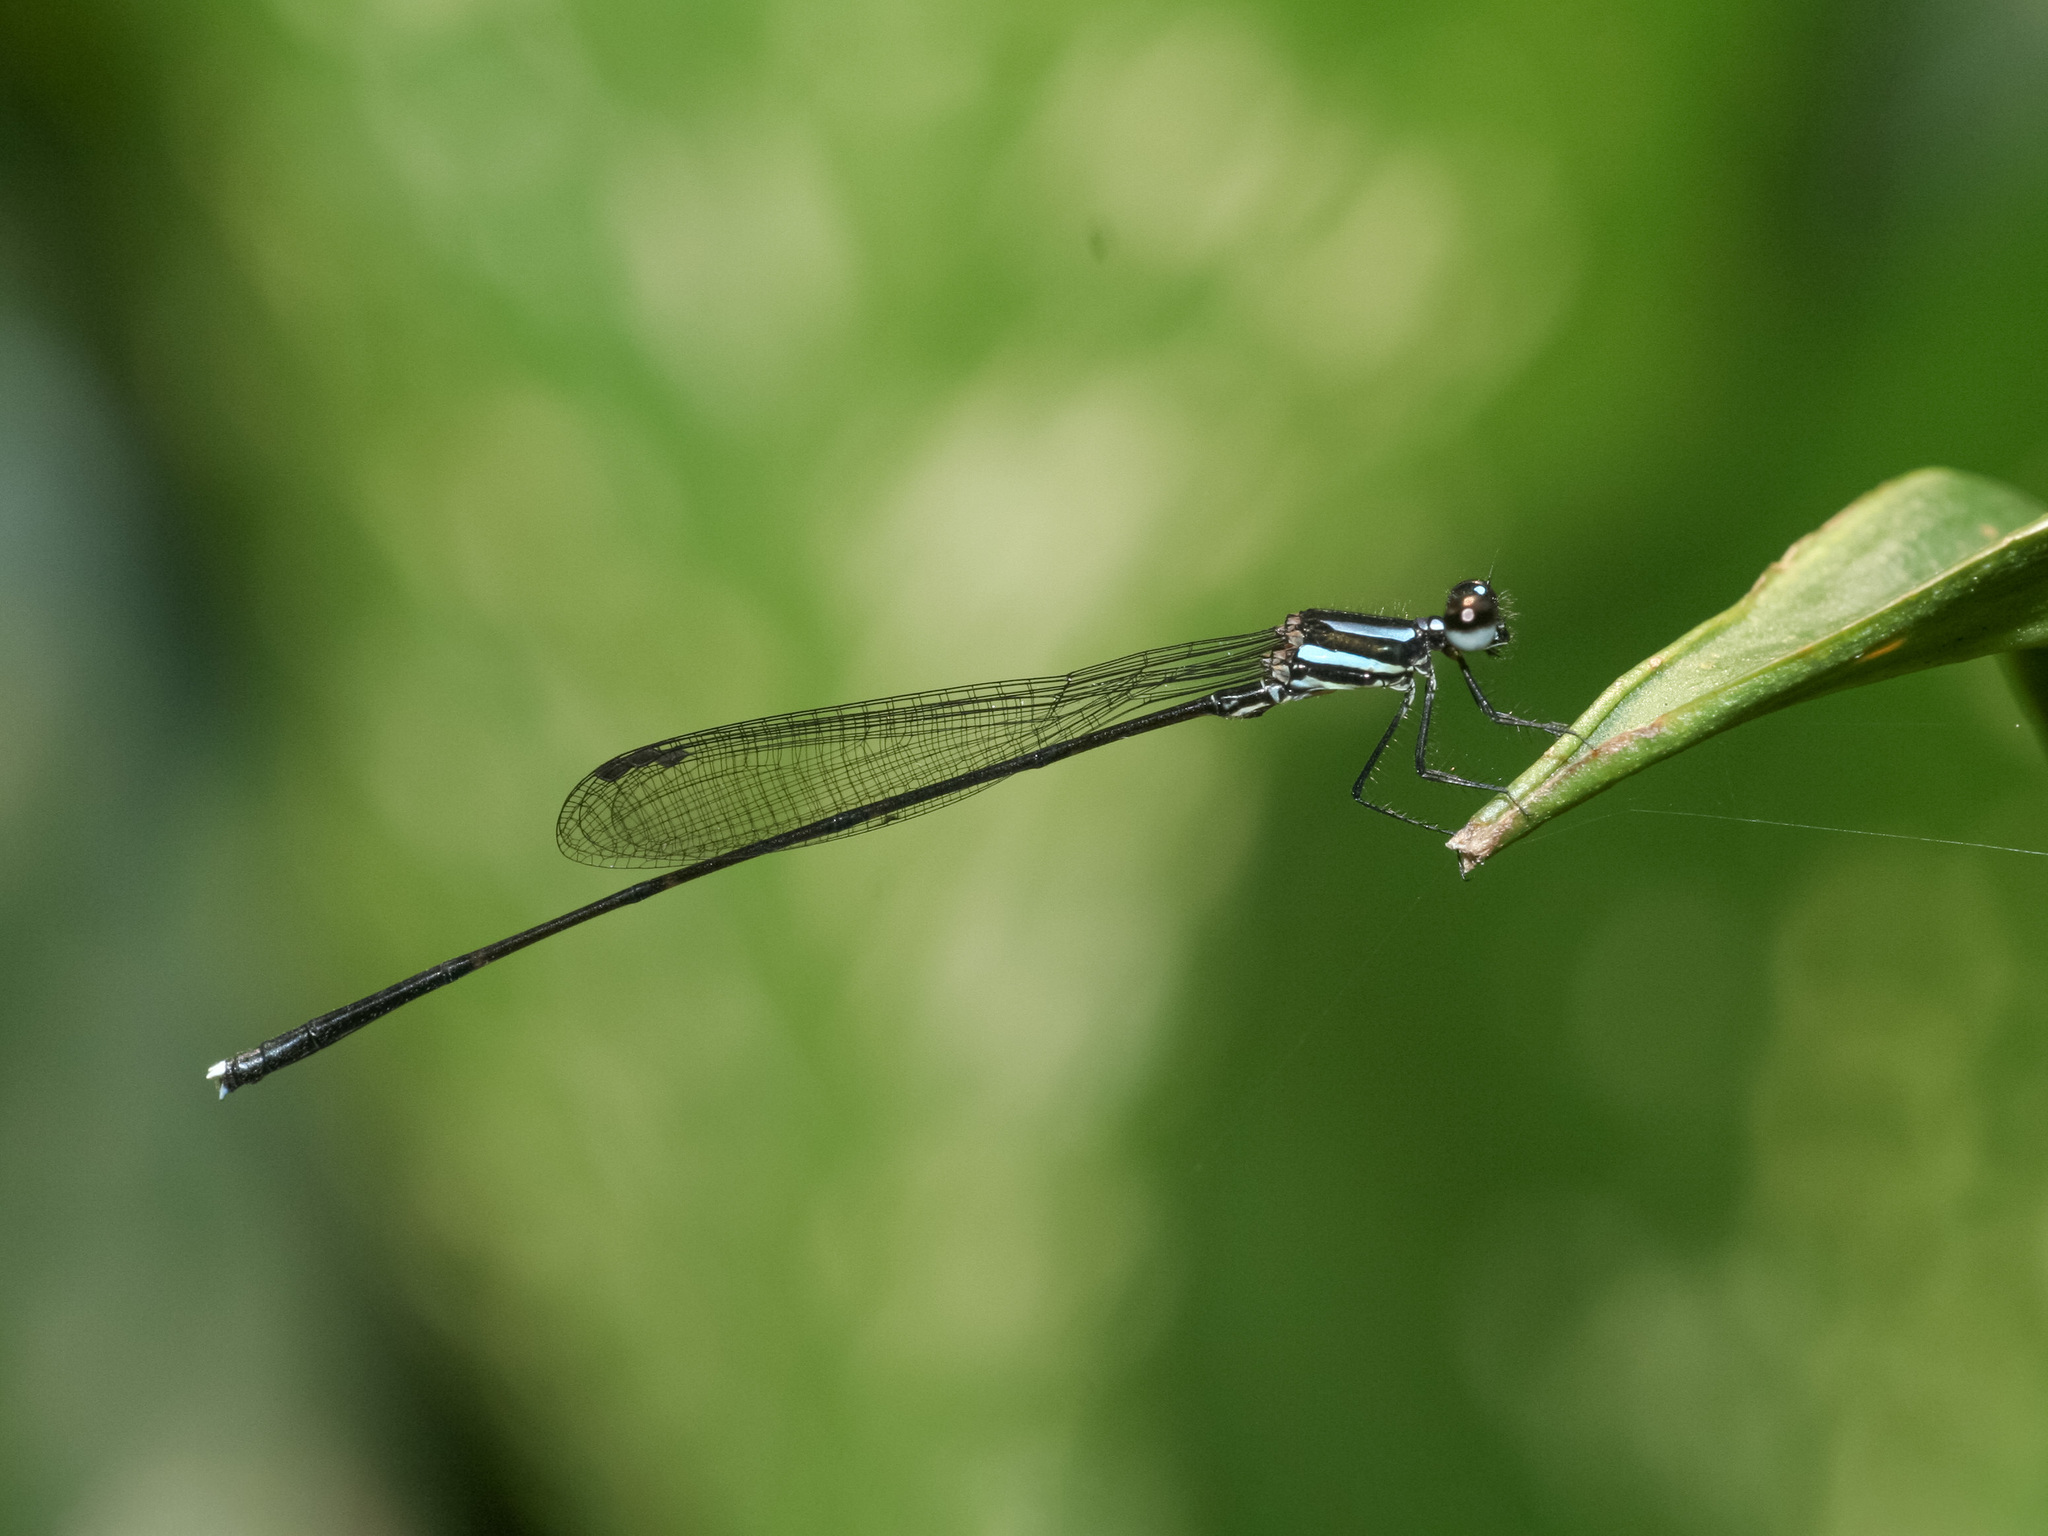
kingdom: Animalia
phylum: Arthropoda
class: Insecta
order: Odonata
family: Platycnemididae
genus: Prodasineura
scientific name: Prodasineura collaris
